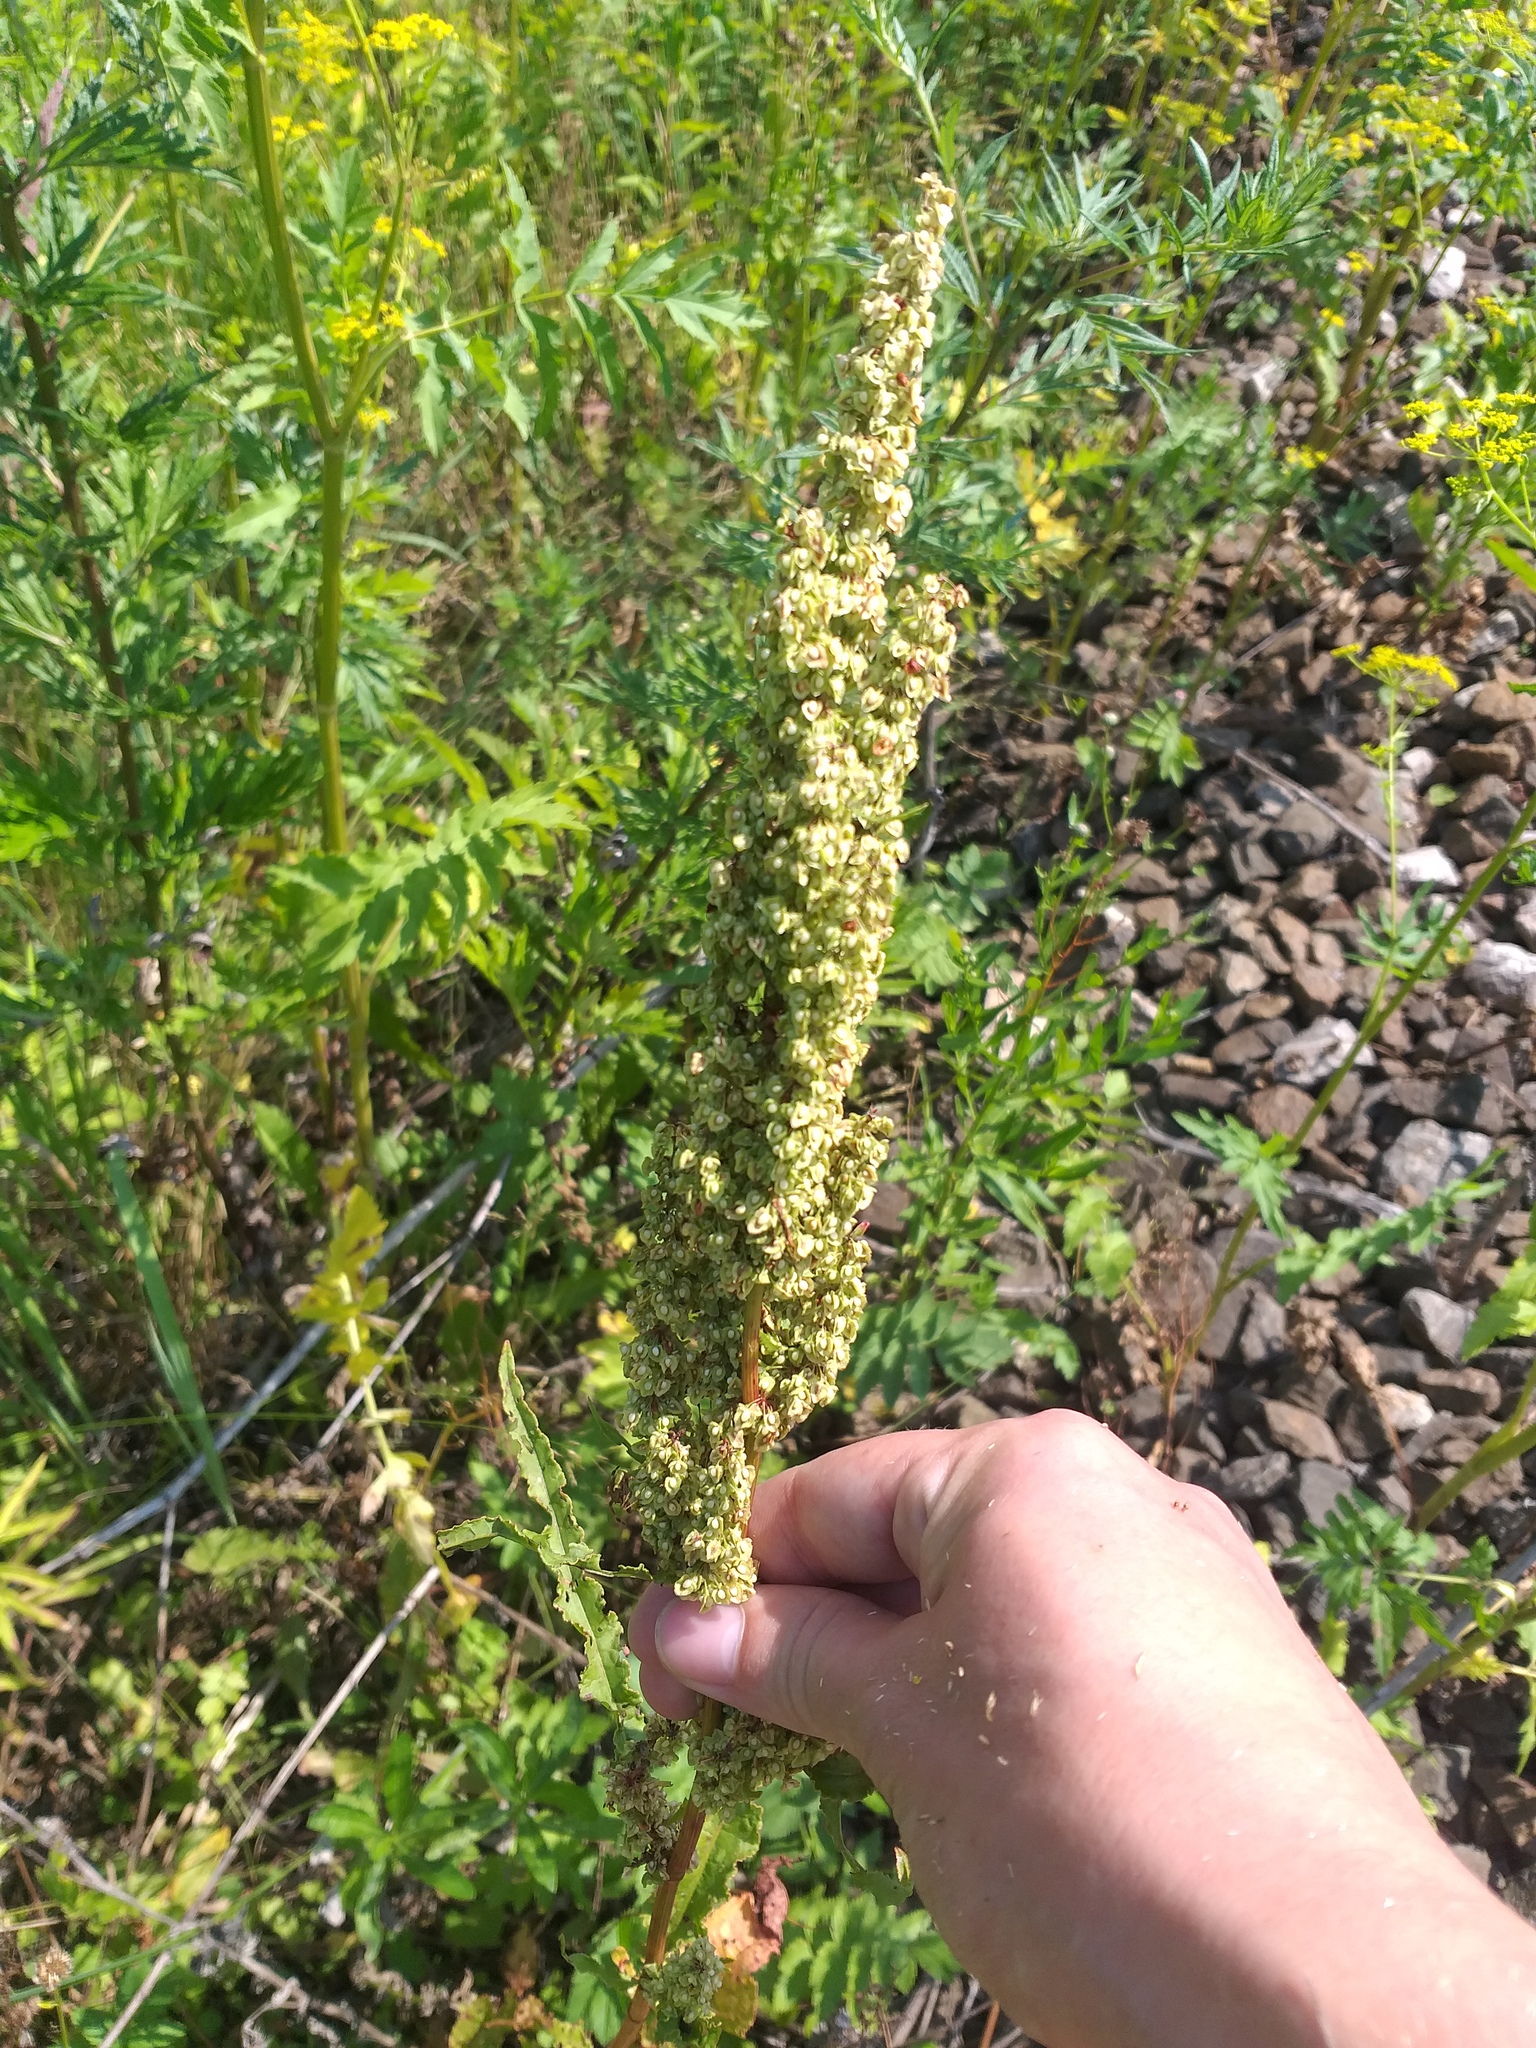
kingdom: Plantae
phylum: Tracheophyta
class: Magnoliopsida
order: Caryophyllales
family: Polygonaceae
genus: Rumex
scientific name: Rumex crispus
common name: Curled dock
